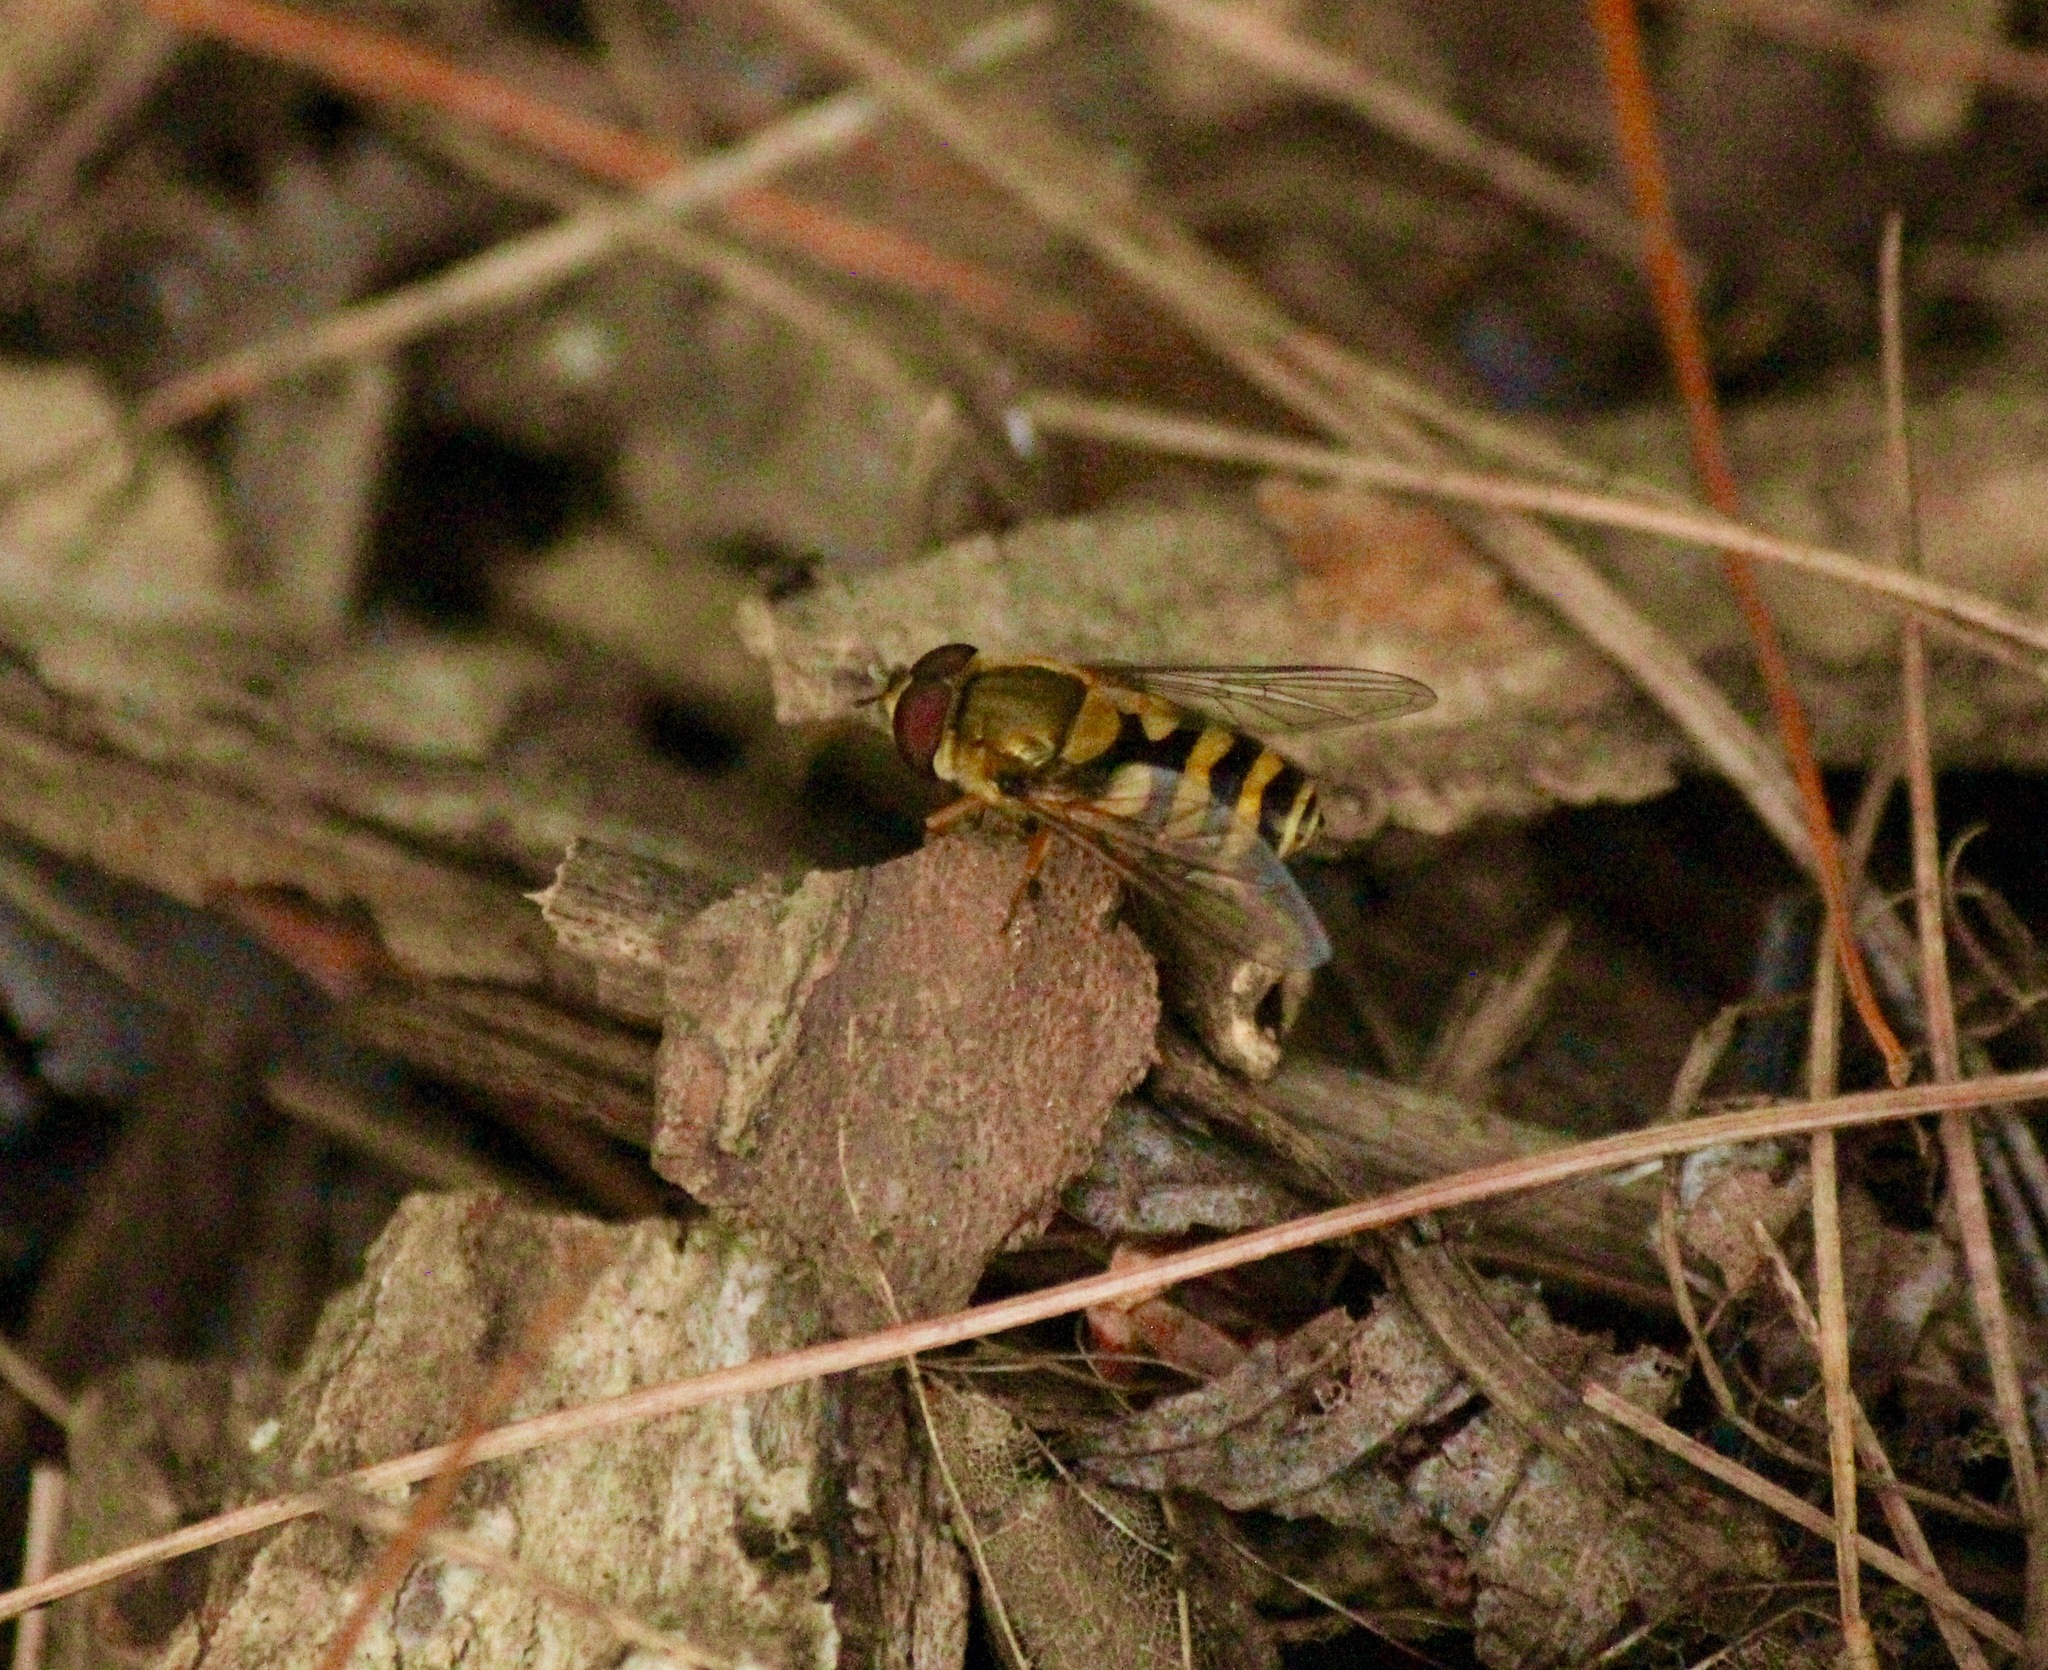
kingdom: Animalia
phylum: Arthropoda
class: Insecta
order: Diptera
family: Syrphidae
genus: Syrphus
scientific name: Syrphus
